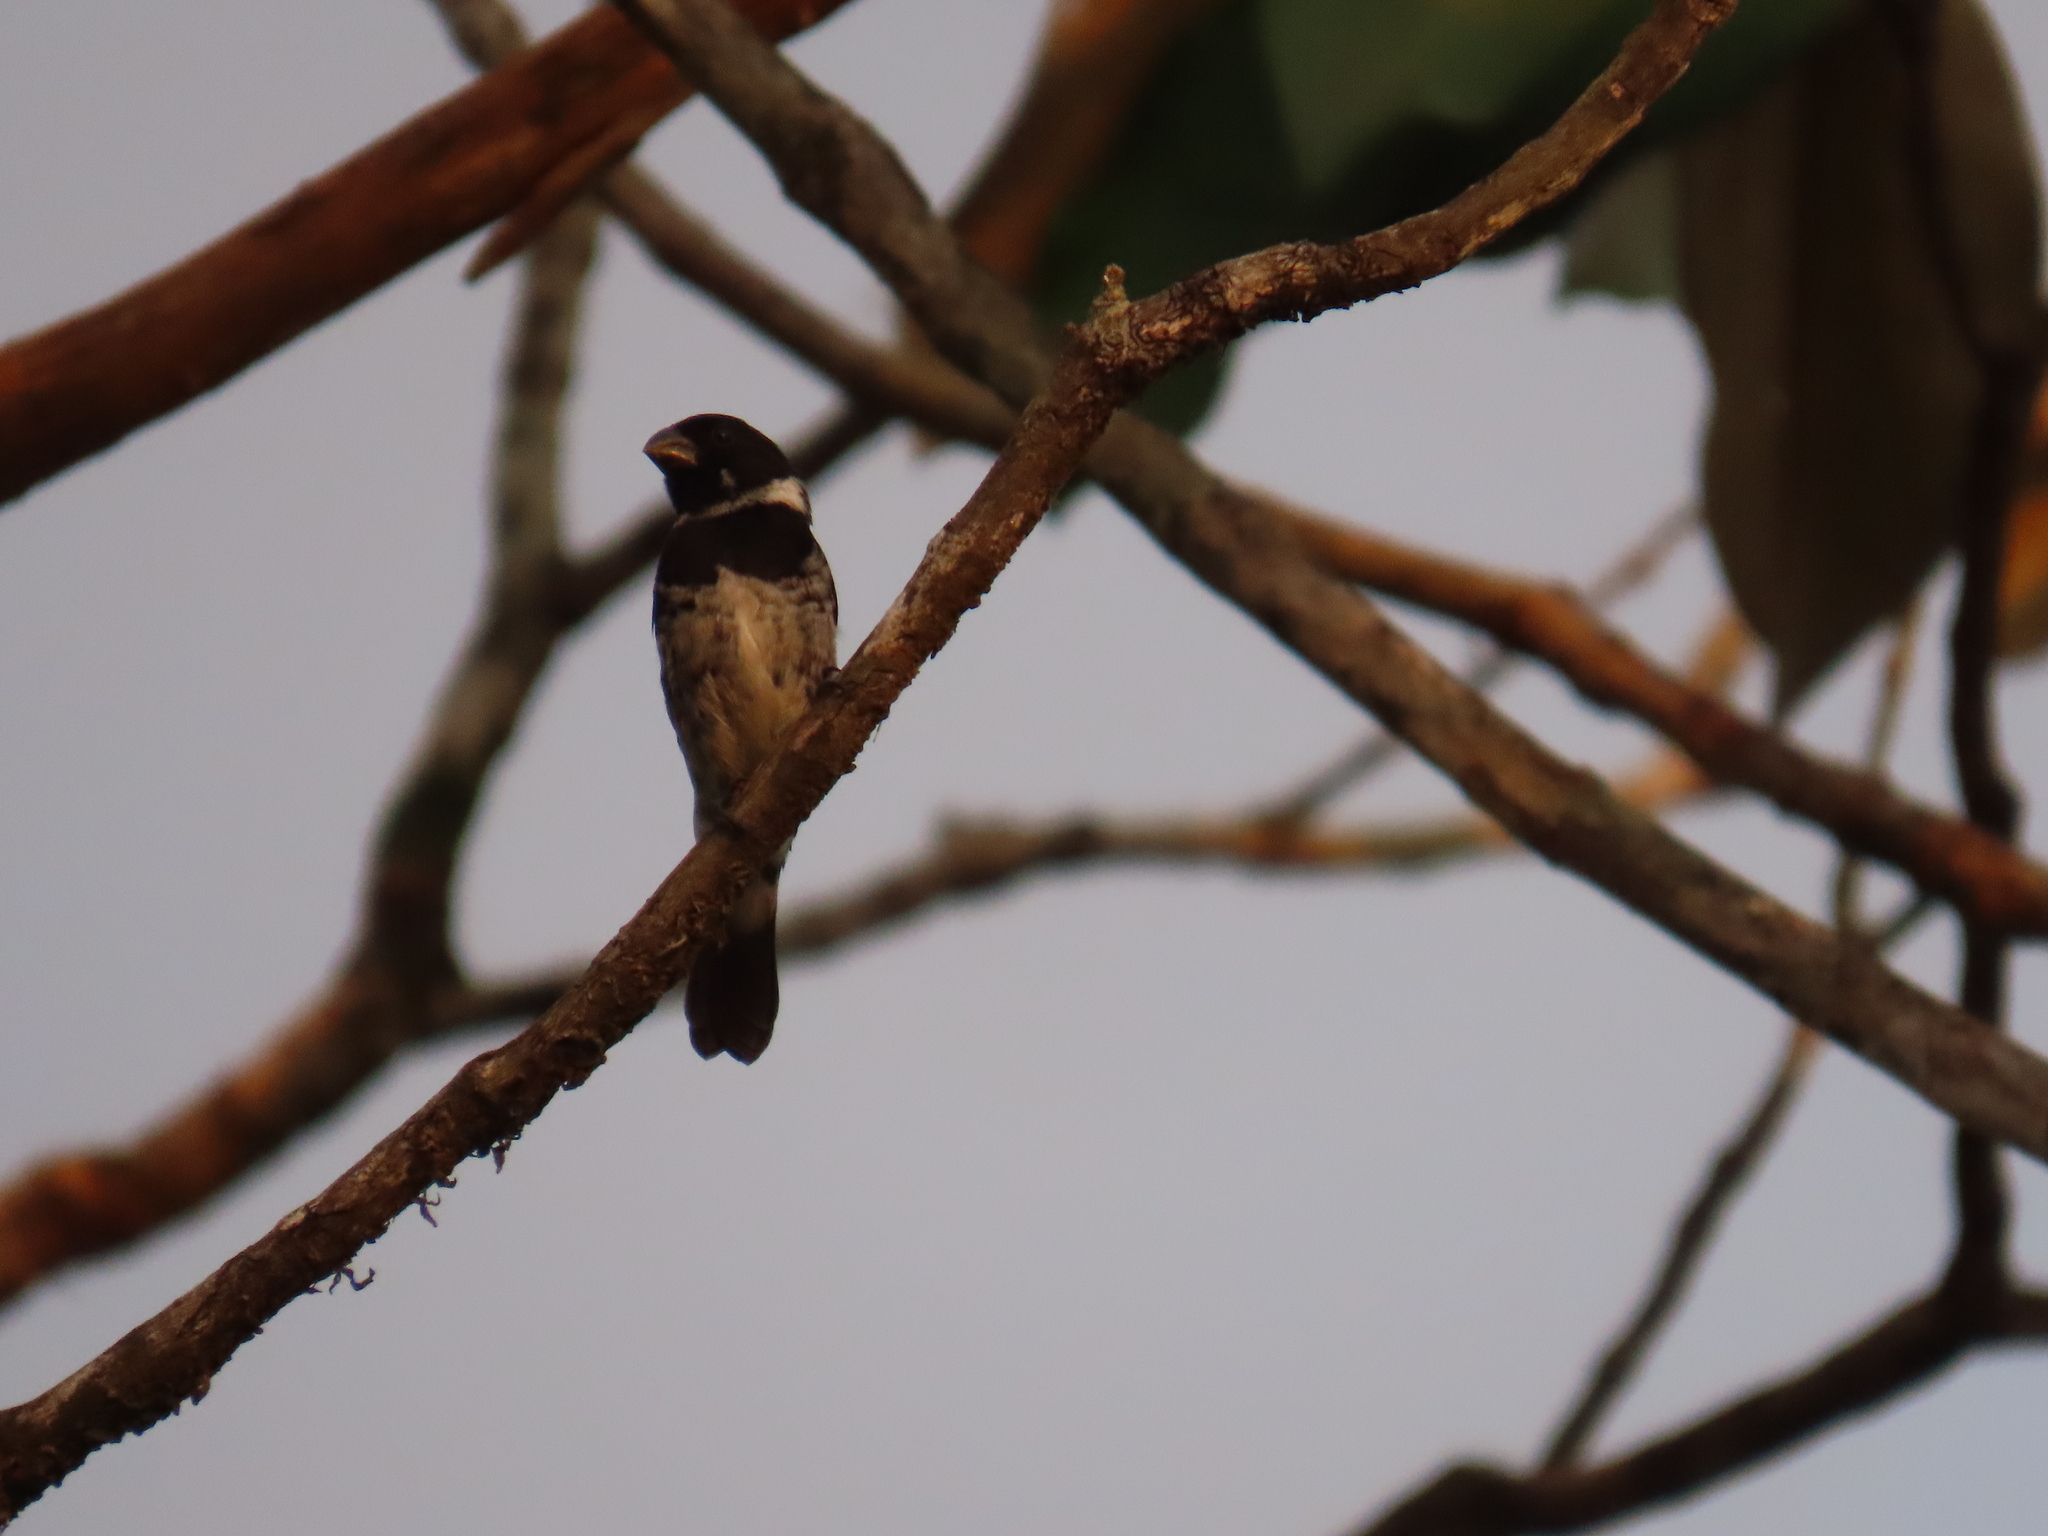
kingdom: Animalia
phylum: Chordata
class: Aves
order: Passeriformes
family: Thraupidae
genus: Sporophila
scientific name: Sporophila corvina
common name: Variable seedeater
